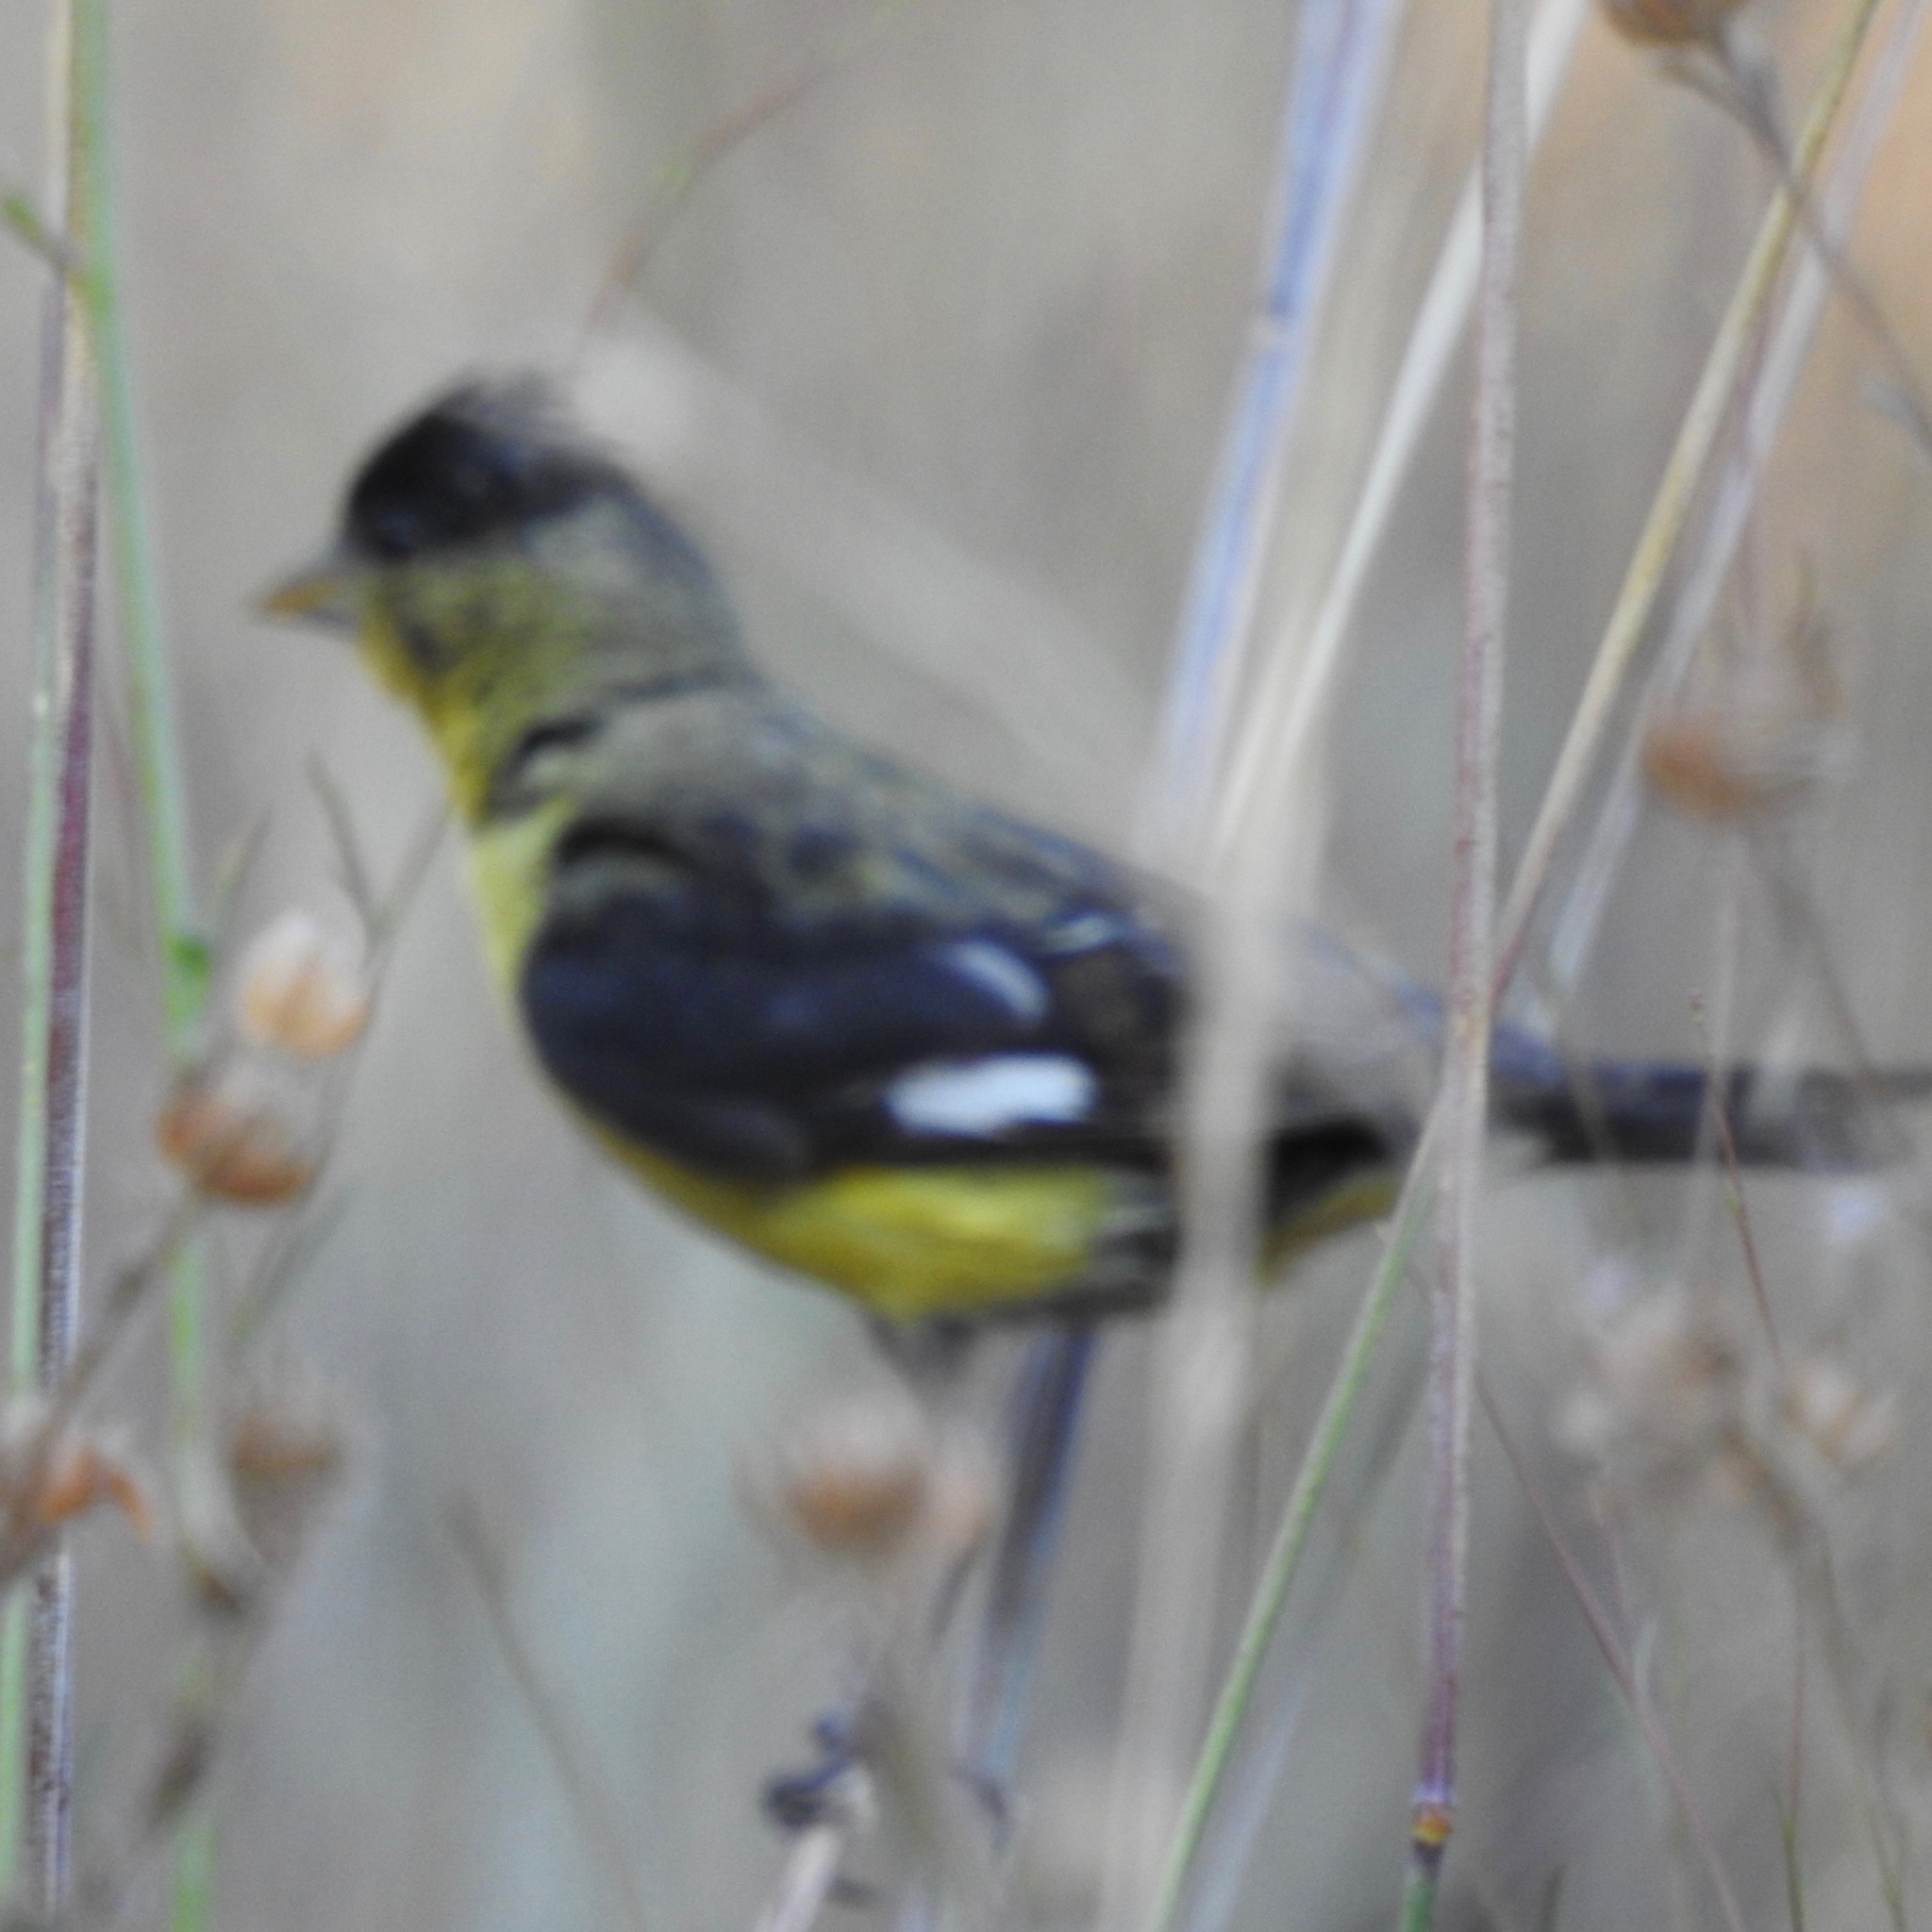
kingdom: Animalia
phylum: Chordata
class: Aves
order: Passeriformes
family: Fringillidae
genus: Spinus
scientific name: Spinus psaltria
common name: Lesser goldfinch
